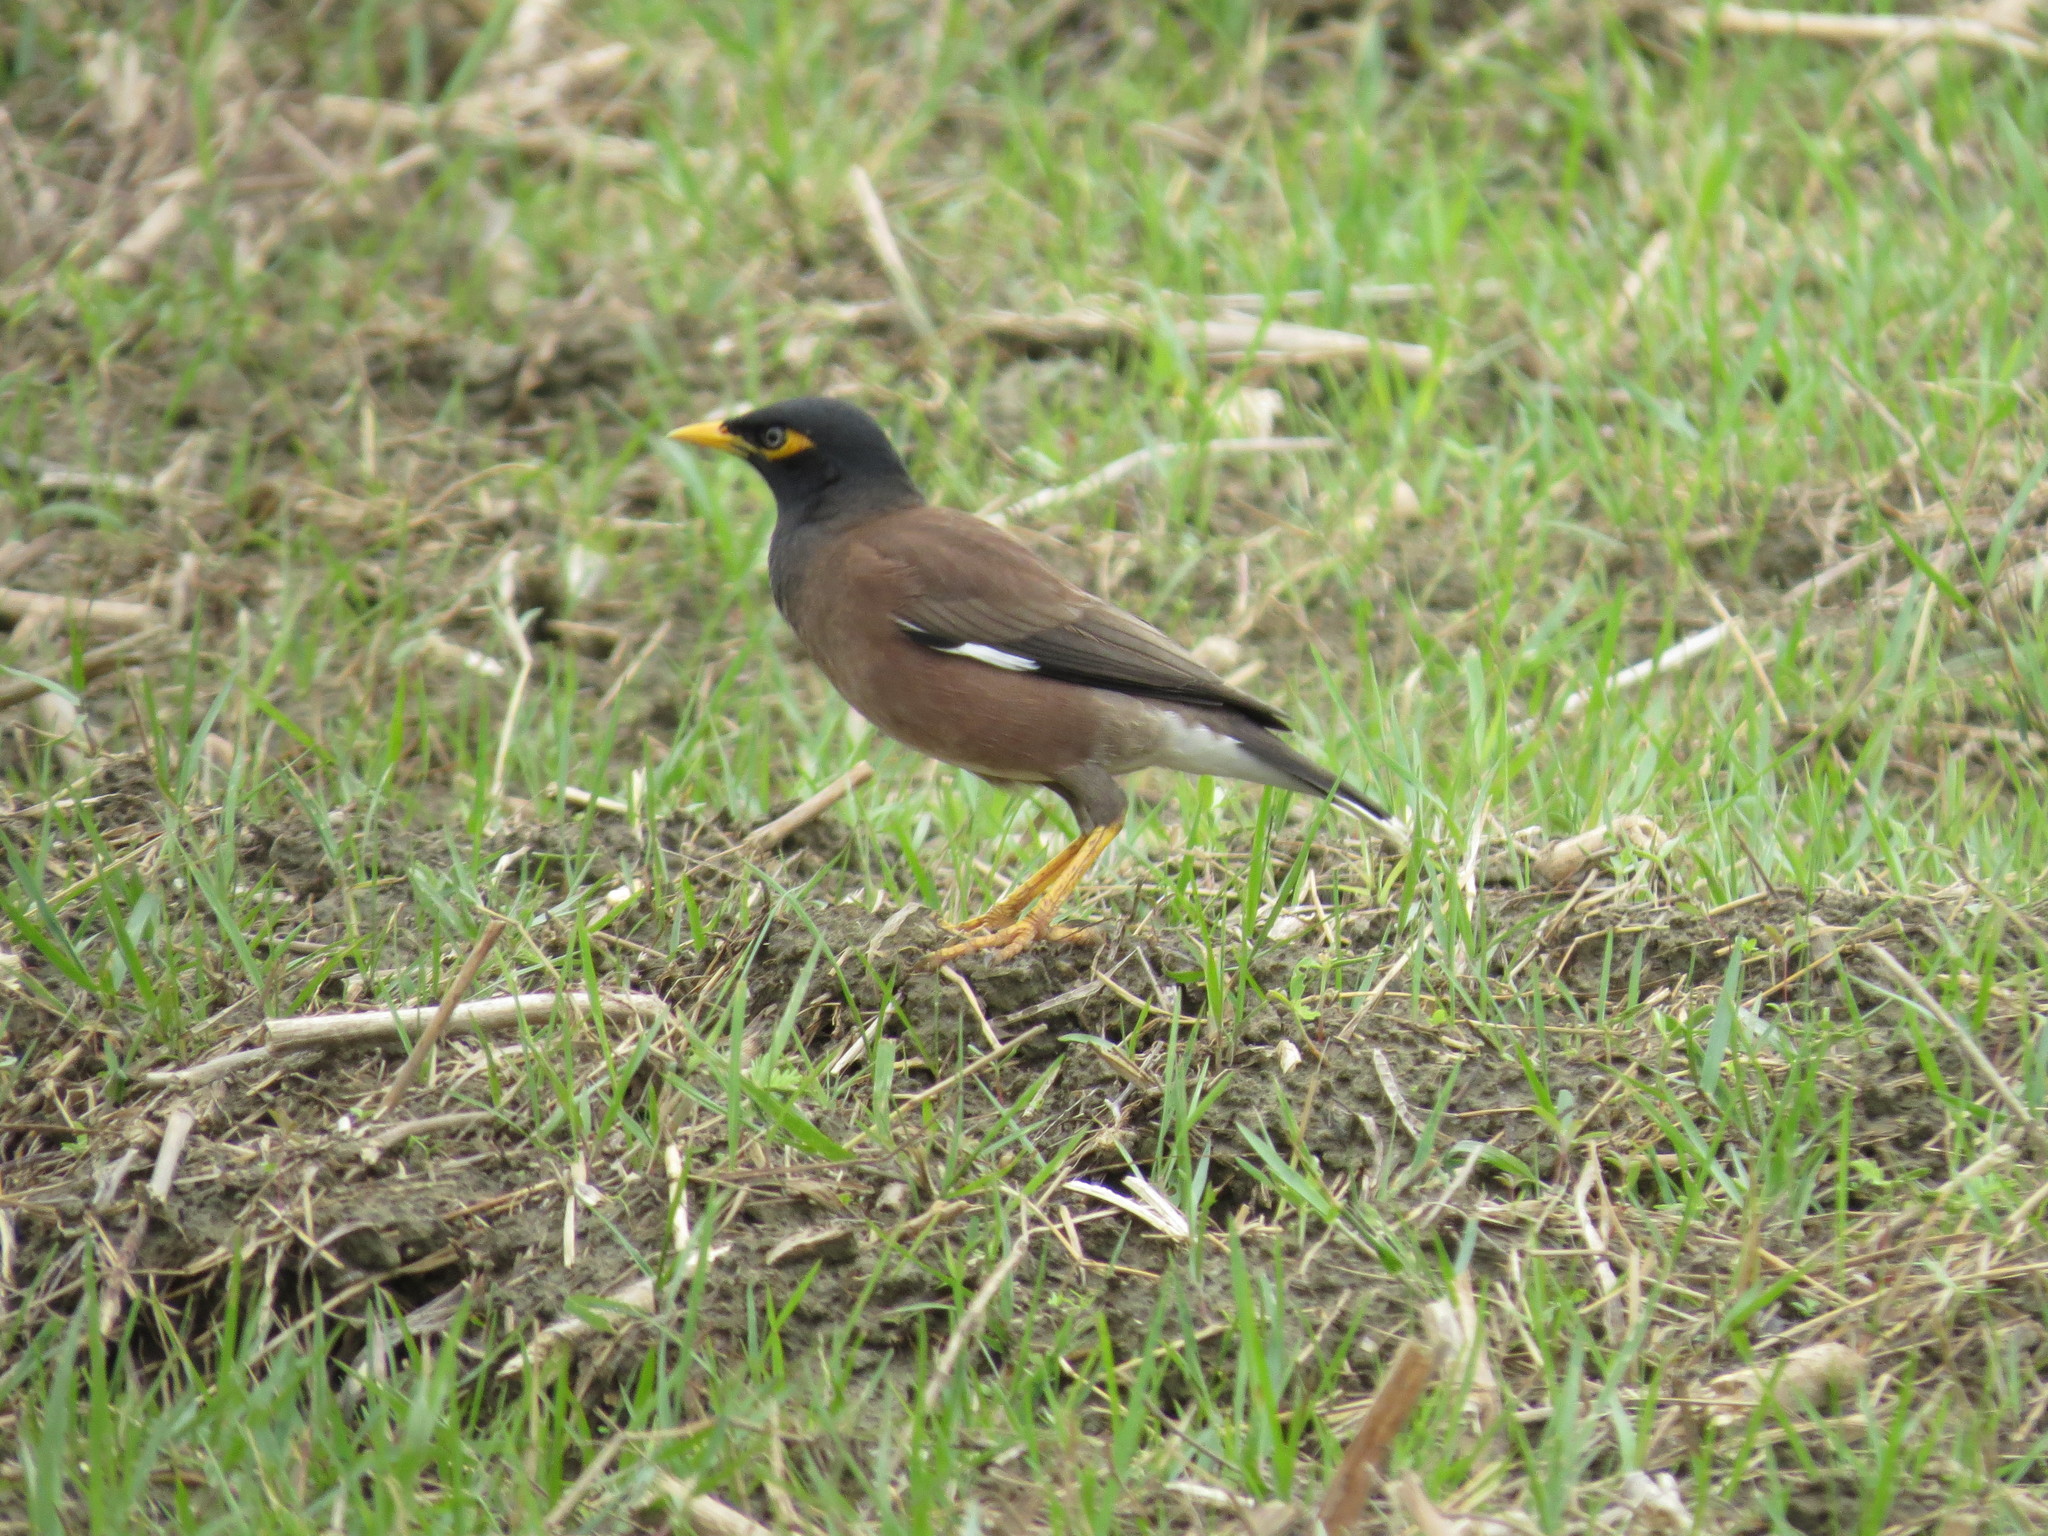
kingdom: Animalia
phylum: Chordata
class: Aves
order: Passeriformes
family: Sturnidae
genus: Acridotheres
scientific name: Acridotheres tristis
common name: Common myna
